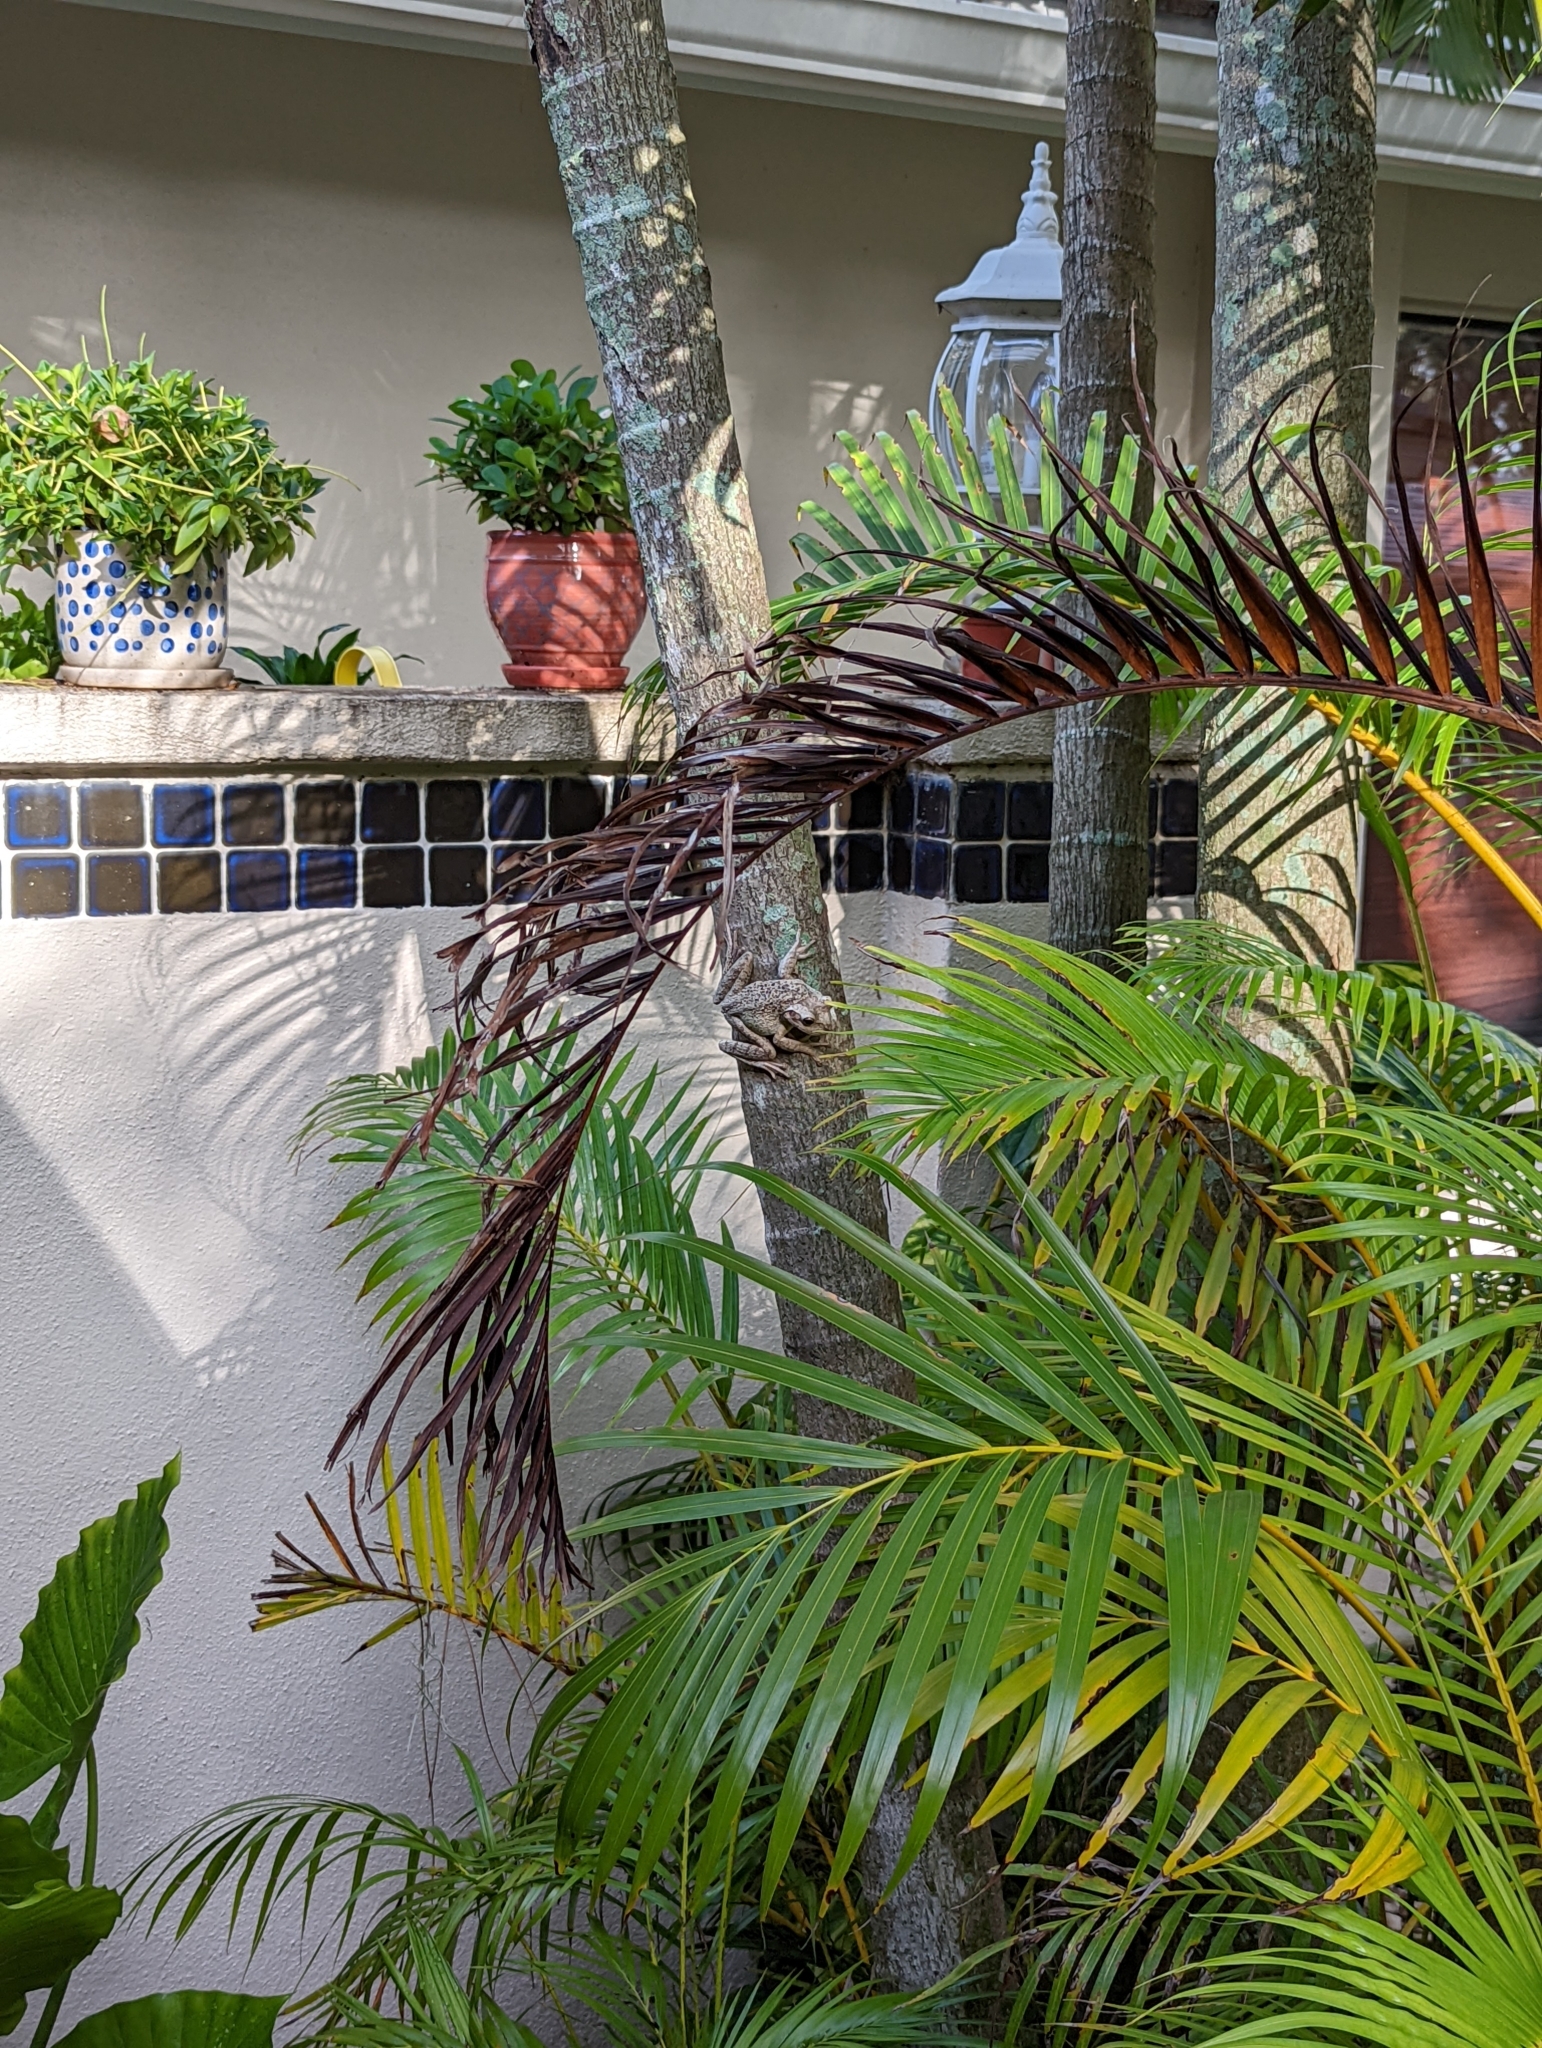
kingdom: Animalia
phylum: Chordata
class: Amphibia
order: Anura
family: Hylidae
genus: Osteopilus
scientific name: Osteopilus septentrionalis
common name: Cuban treefrog
